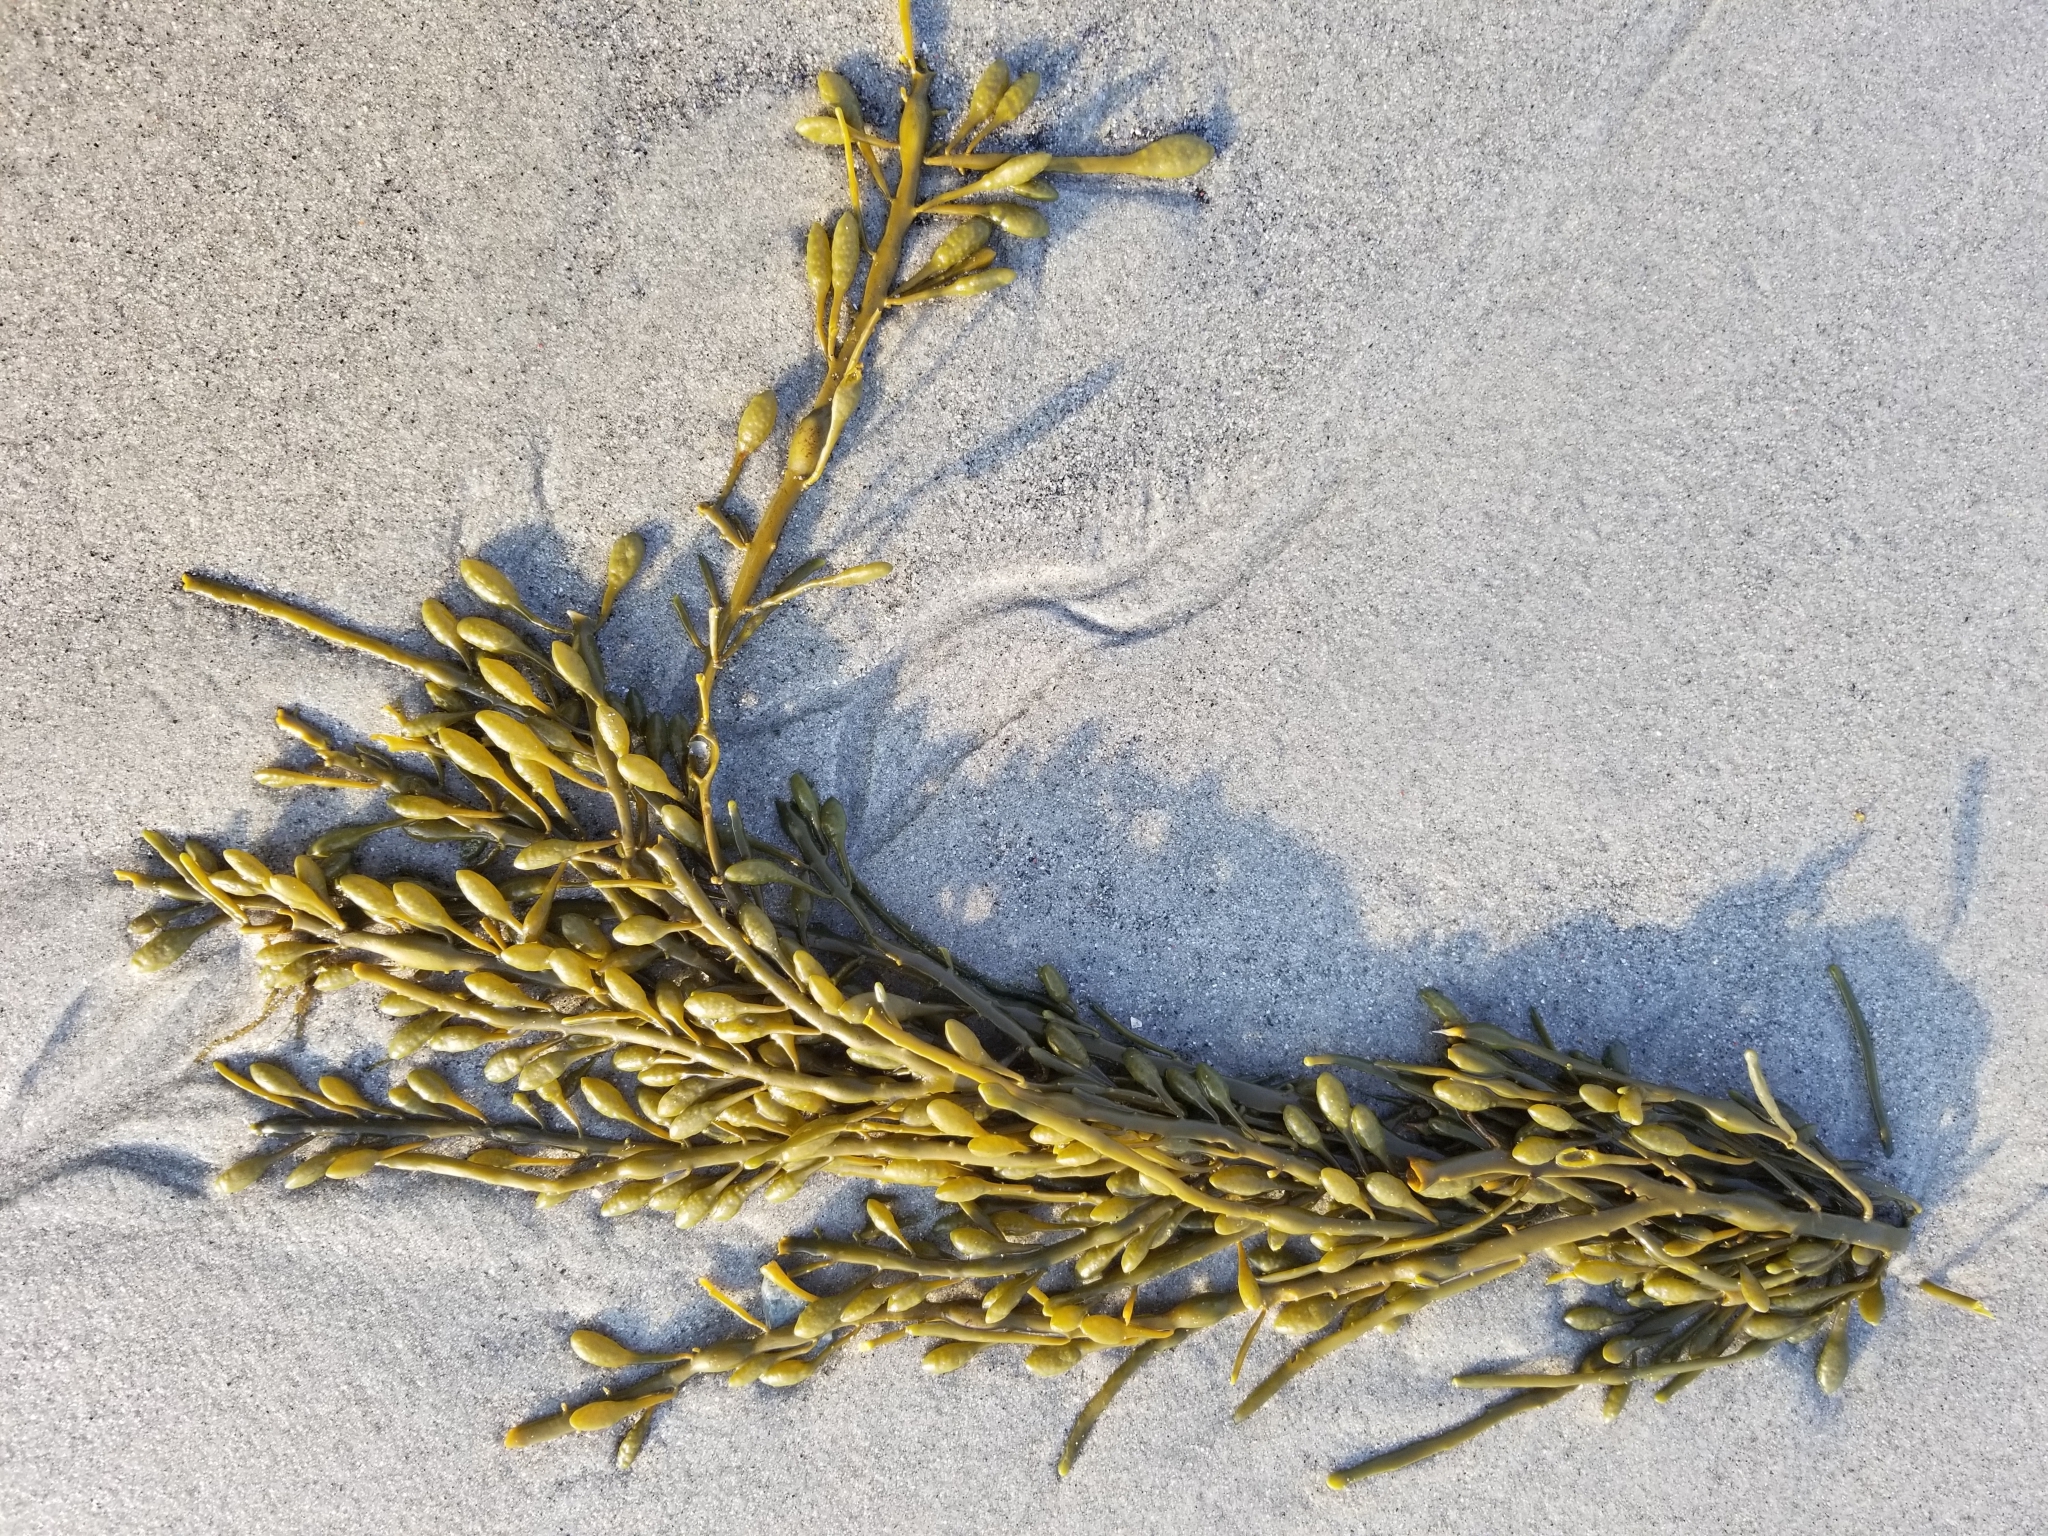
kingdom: Chromista
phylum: Ochrophyta
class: Phaeophyceae
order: Fucales
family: Fucaceae
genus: Ascophyllum
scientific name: Ascophyllum nodosum
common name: Knotted wrack
